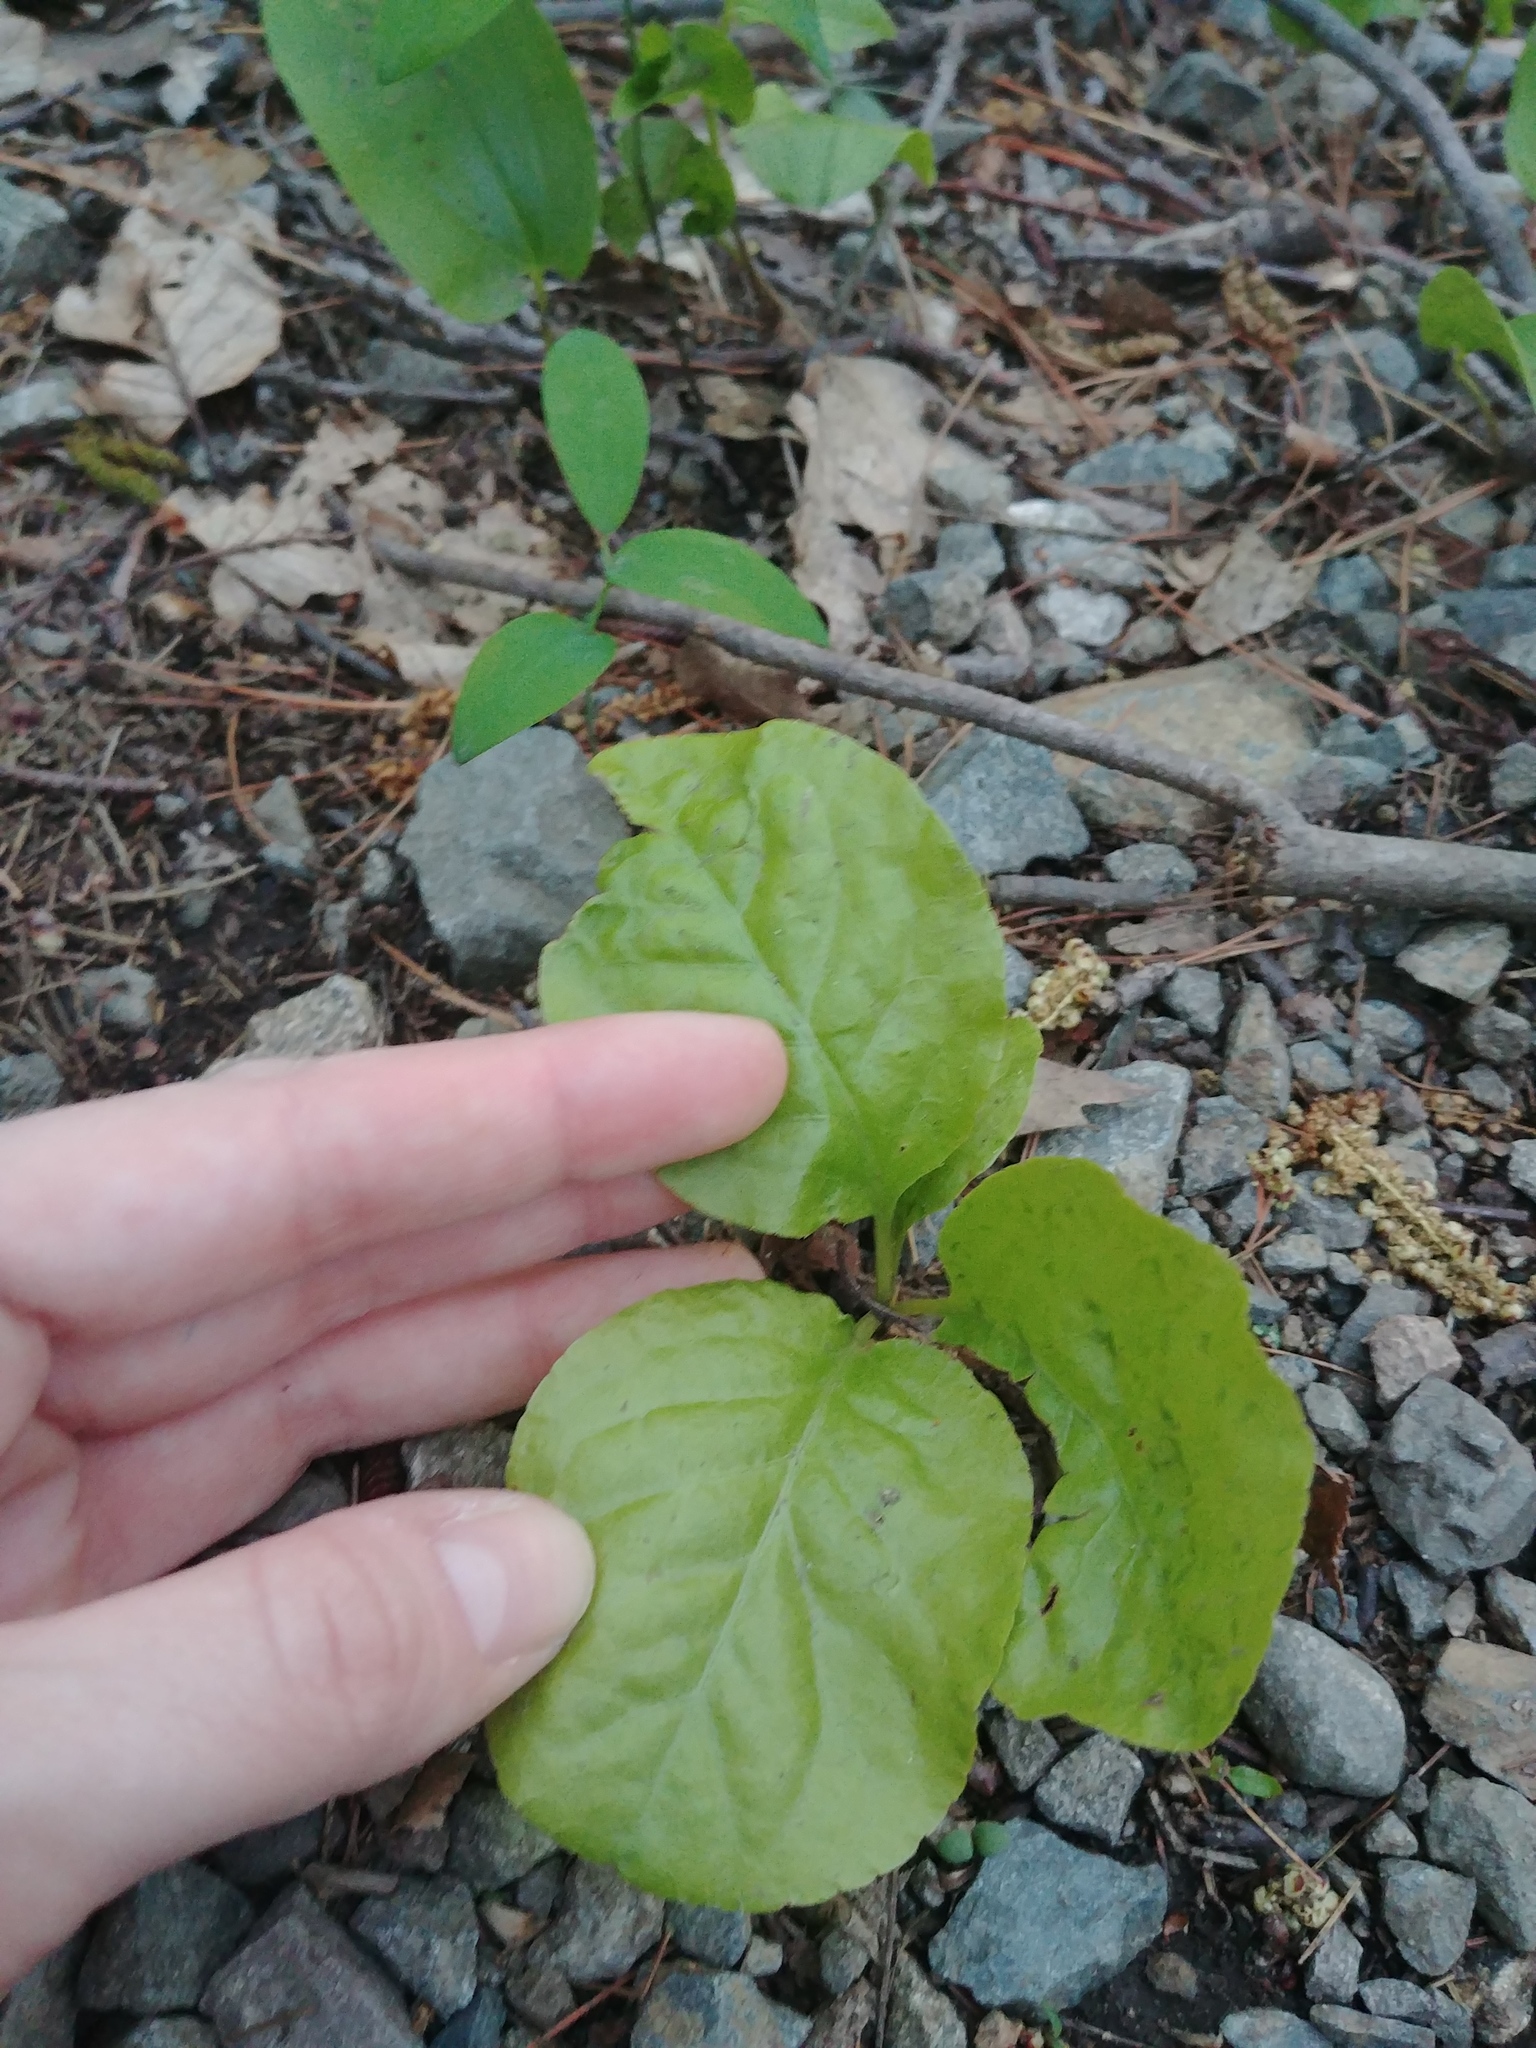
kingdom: Plantae
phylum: Tracheophyta
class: Magnoliopsida
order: Ericales
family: Ericaceae
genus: Pyrola
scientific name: Pyrola elliptica
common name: Shinleaf
